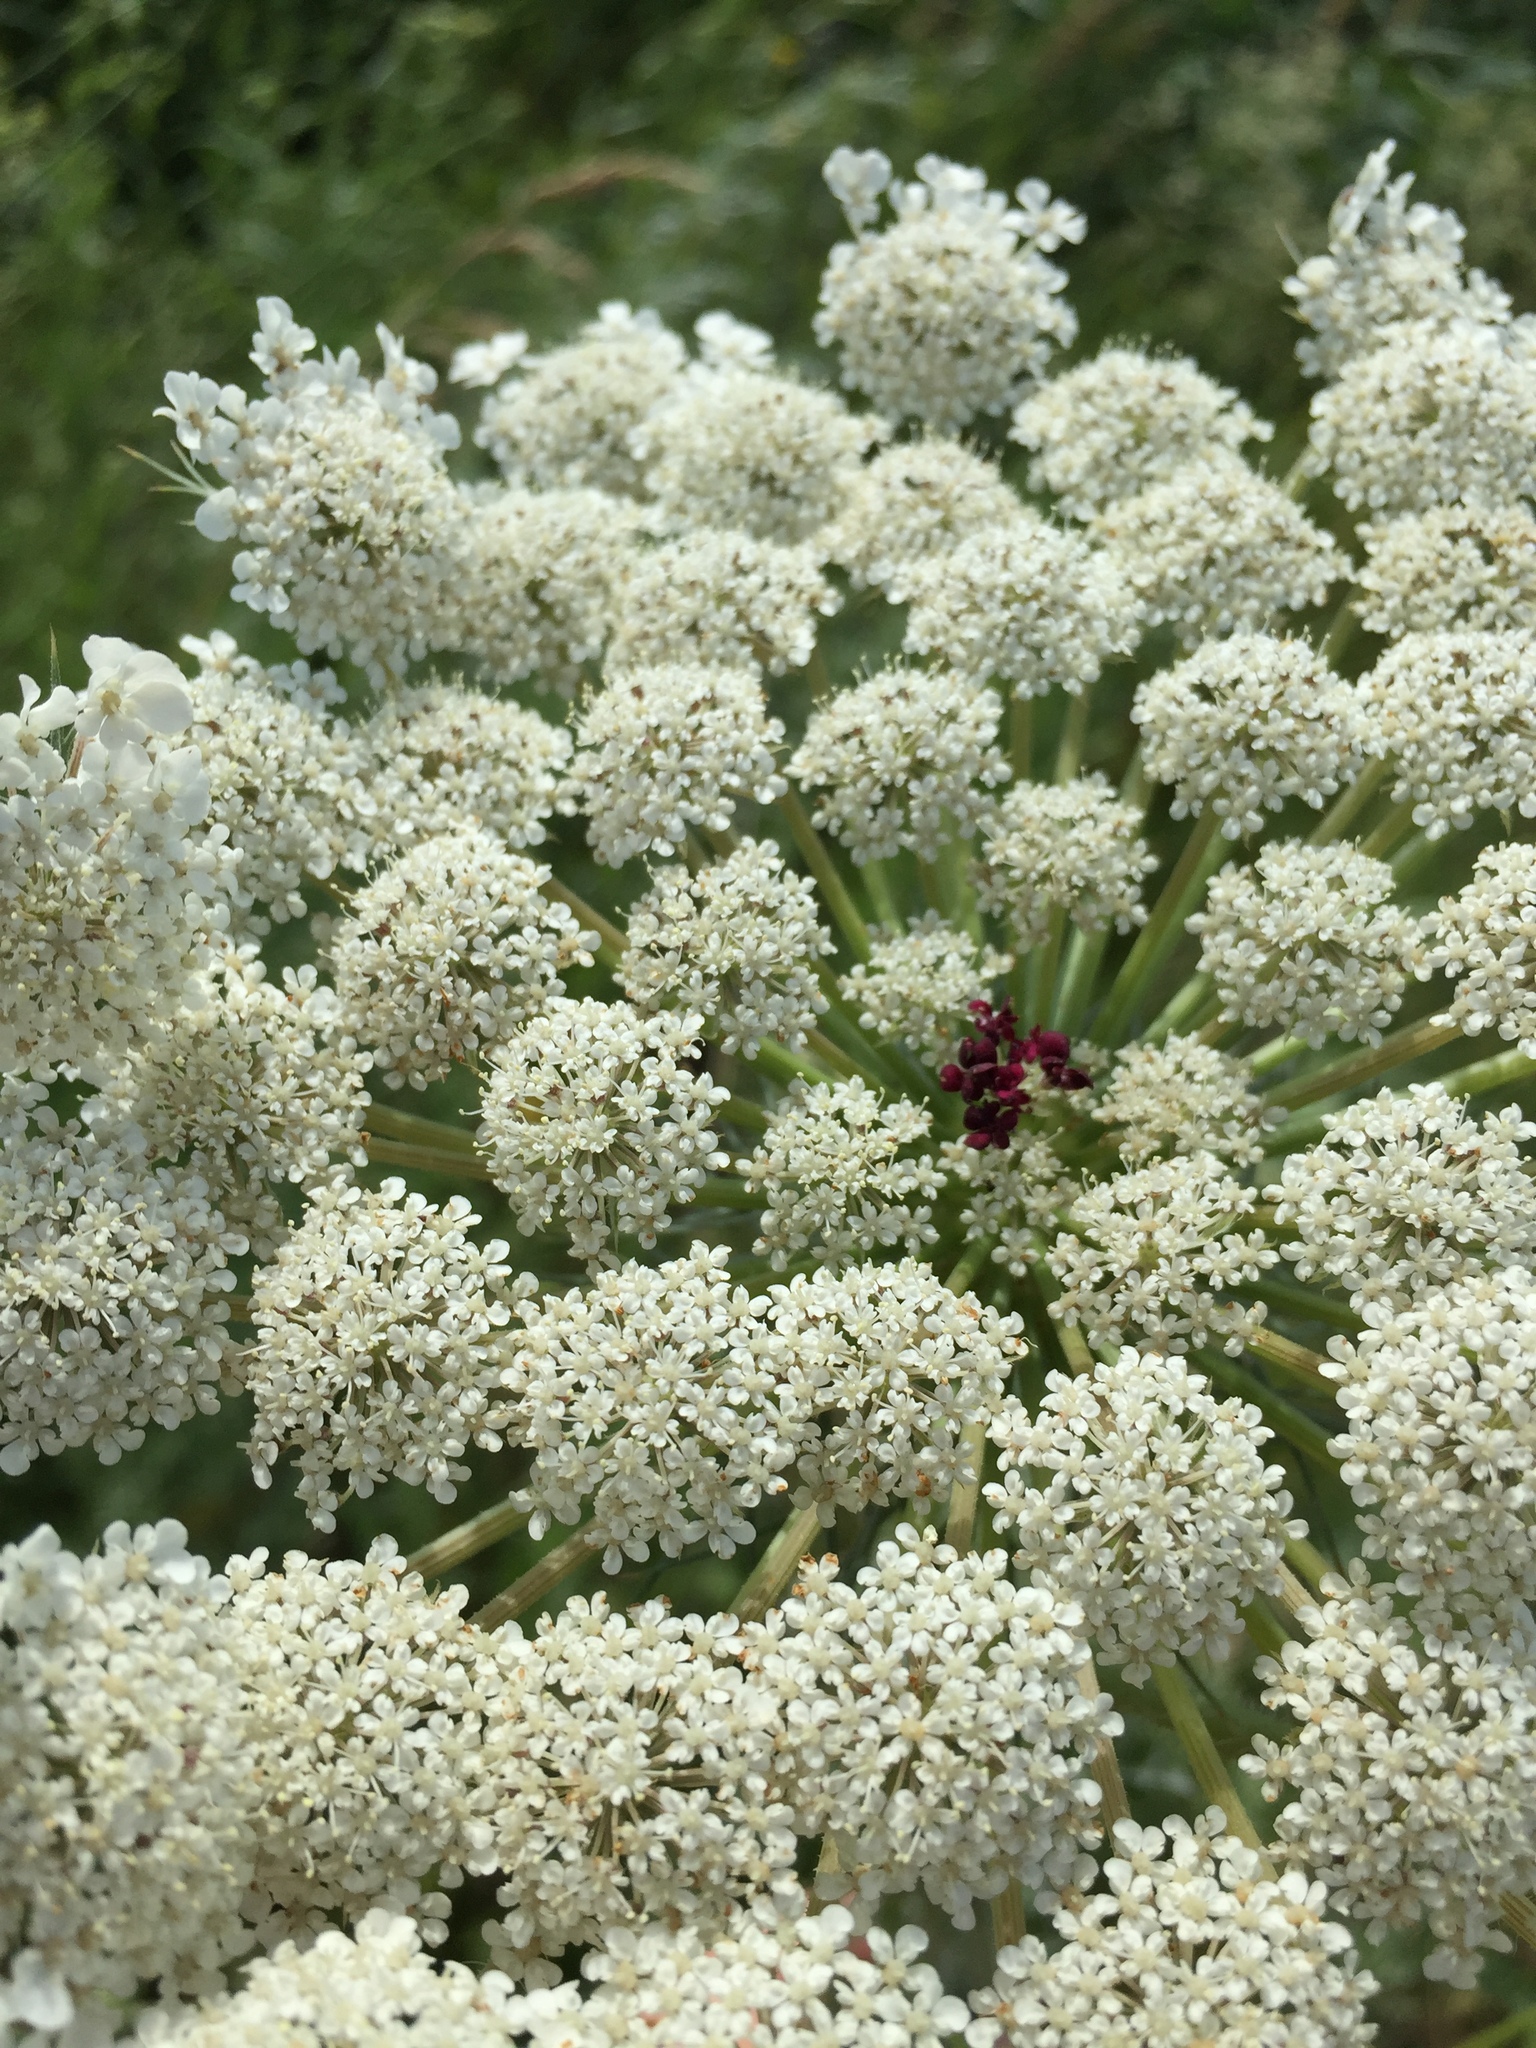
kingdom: Plantae
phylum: Tracheophyta
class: Magnoliopsida
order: Apiales
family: Apiaceae
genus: Daucus
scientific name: Daucus carota
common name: Wild carrot
